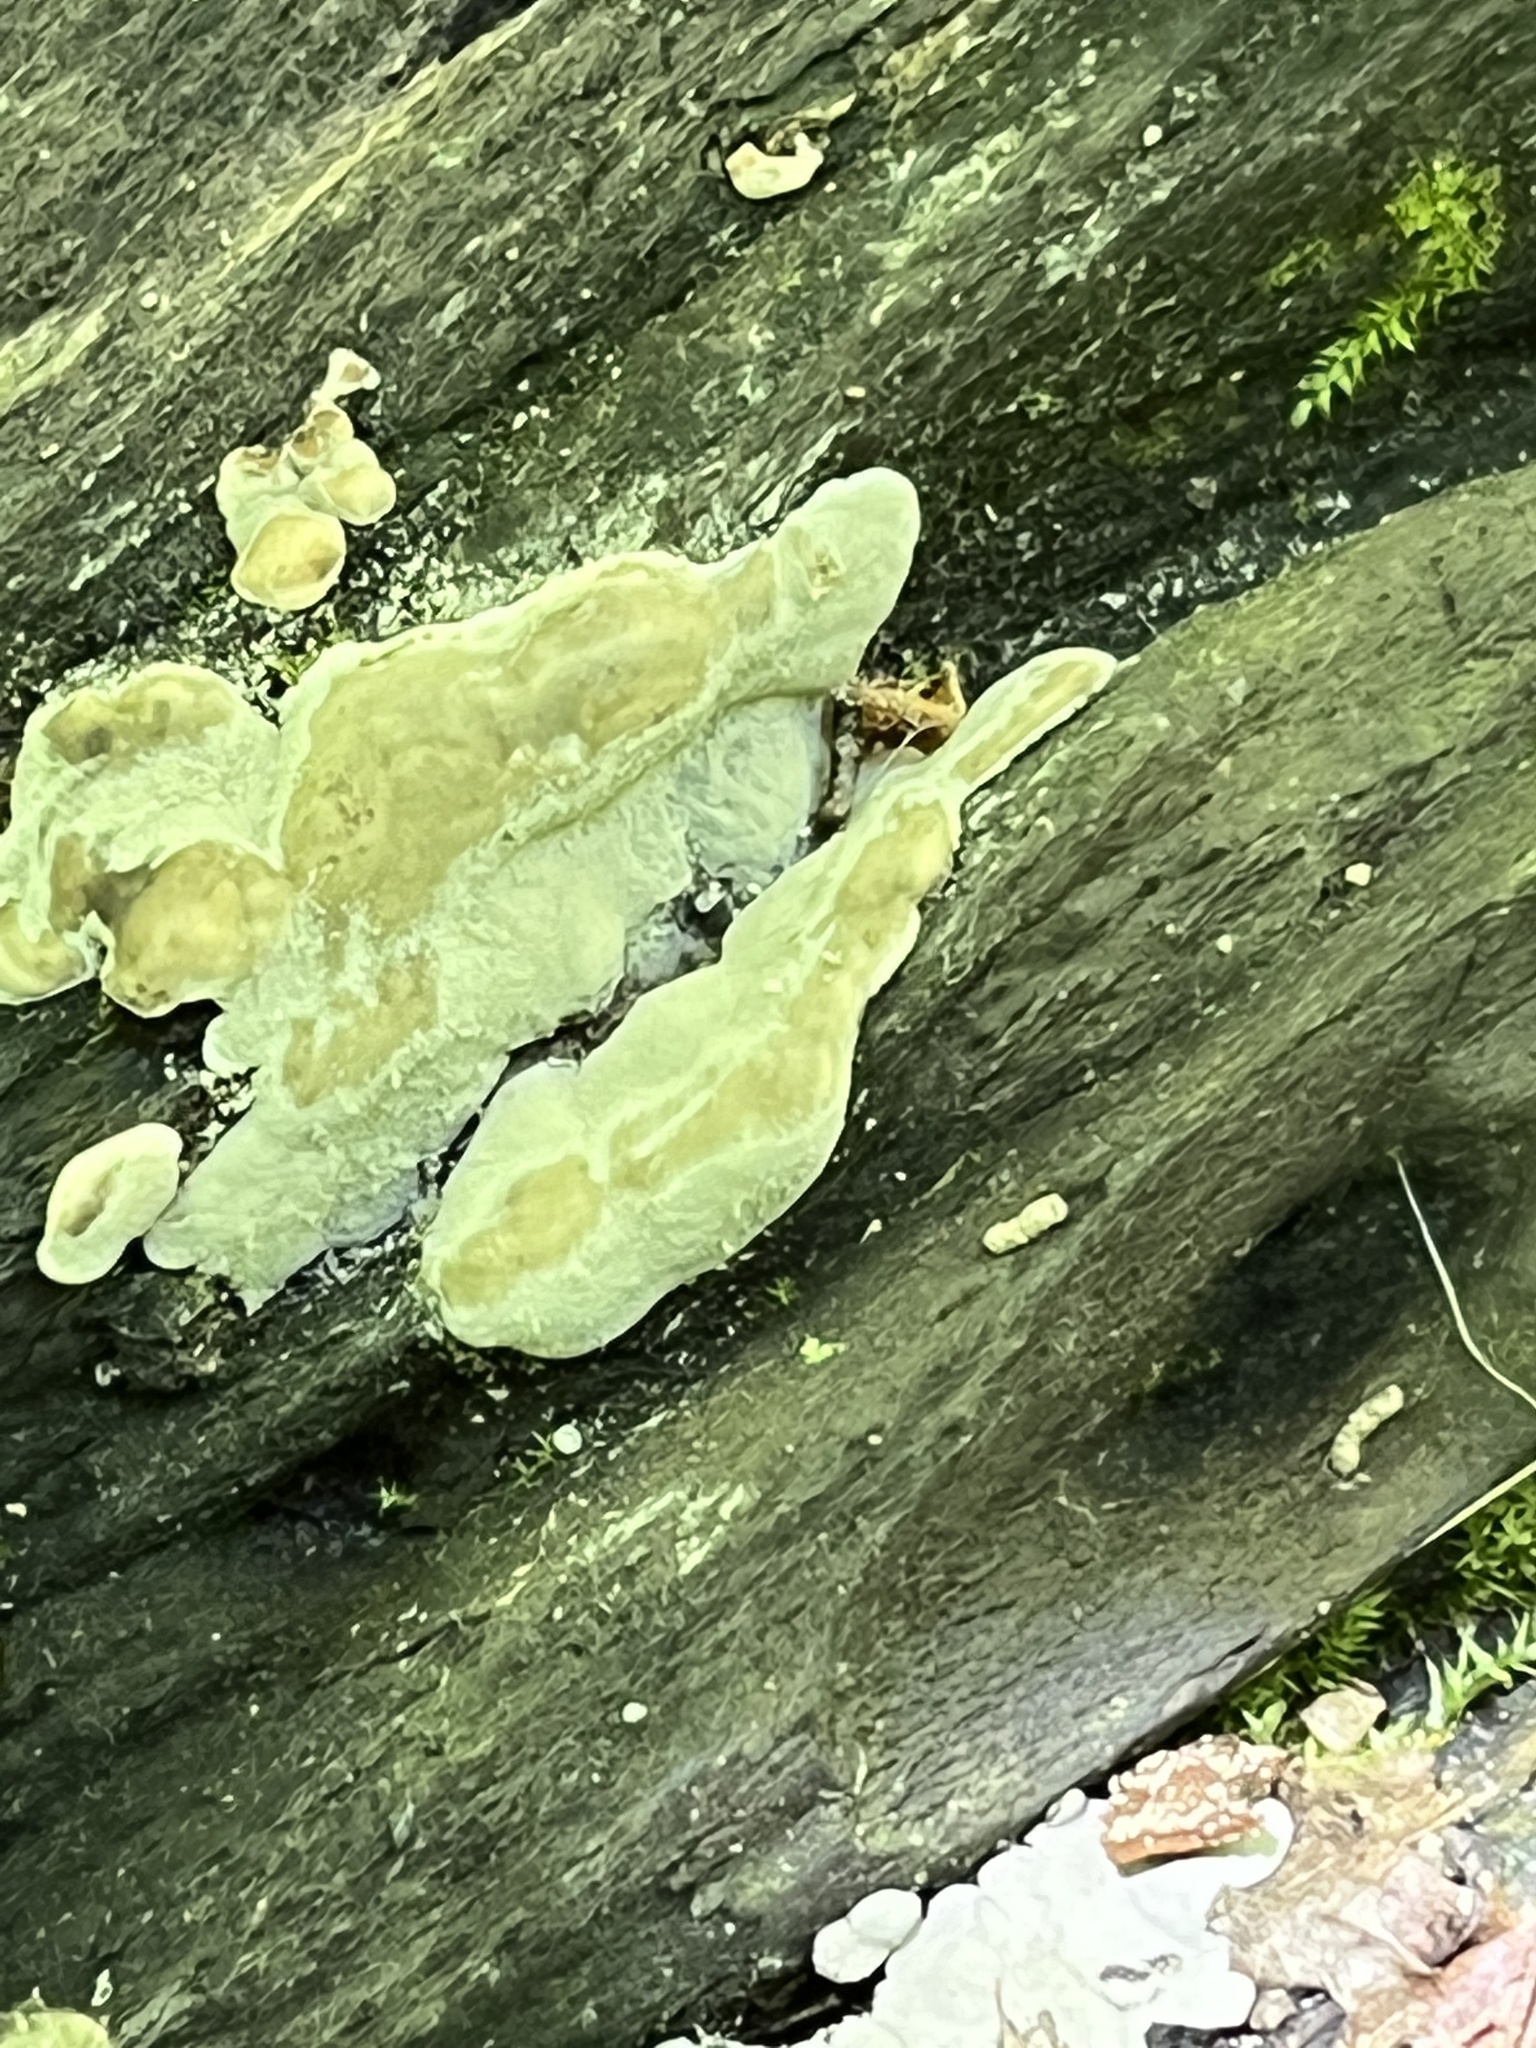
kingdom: Fungi
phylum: Ascomycota
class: Sordariomycetes
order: Xylariales
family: Xylariaceae
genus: Kretzschmaria
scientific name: Kretzschmaria deusta
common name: Brittle cinder
